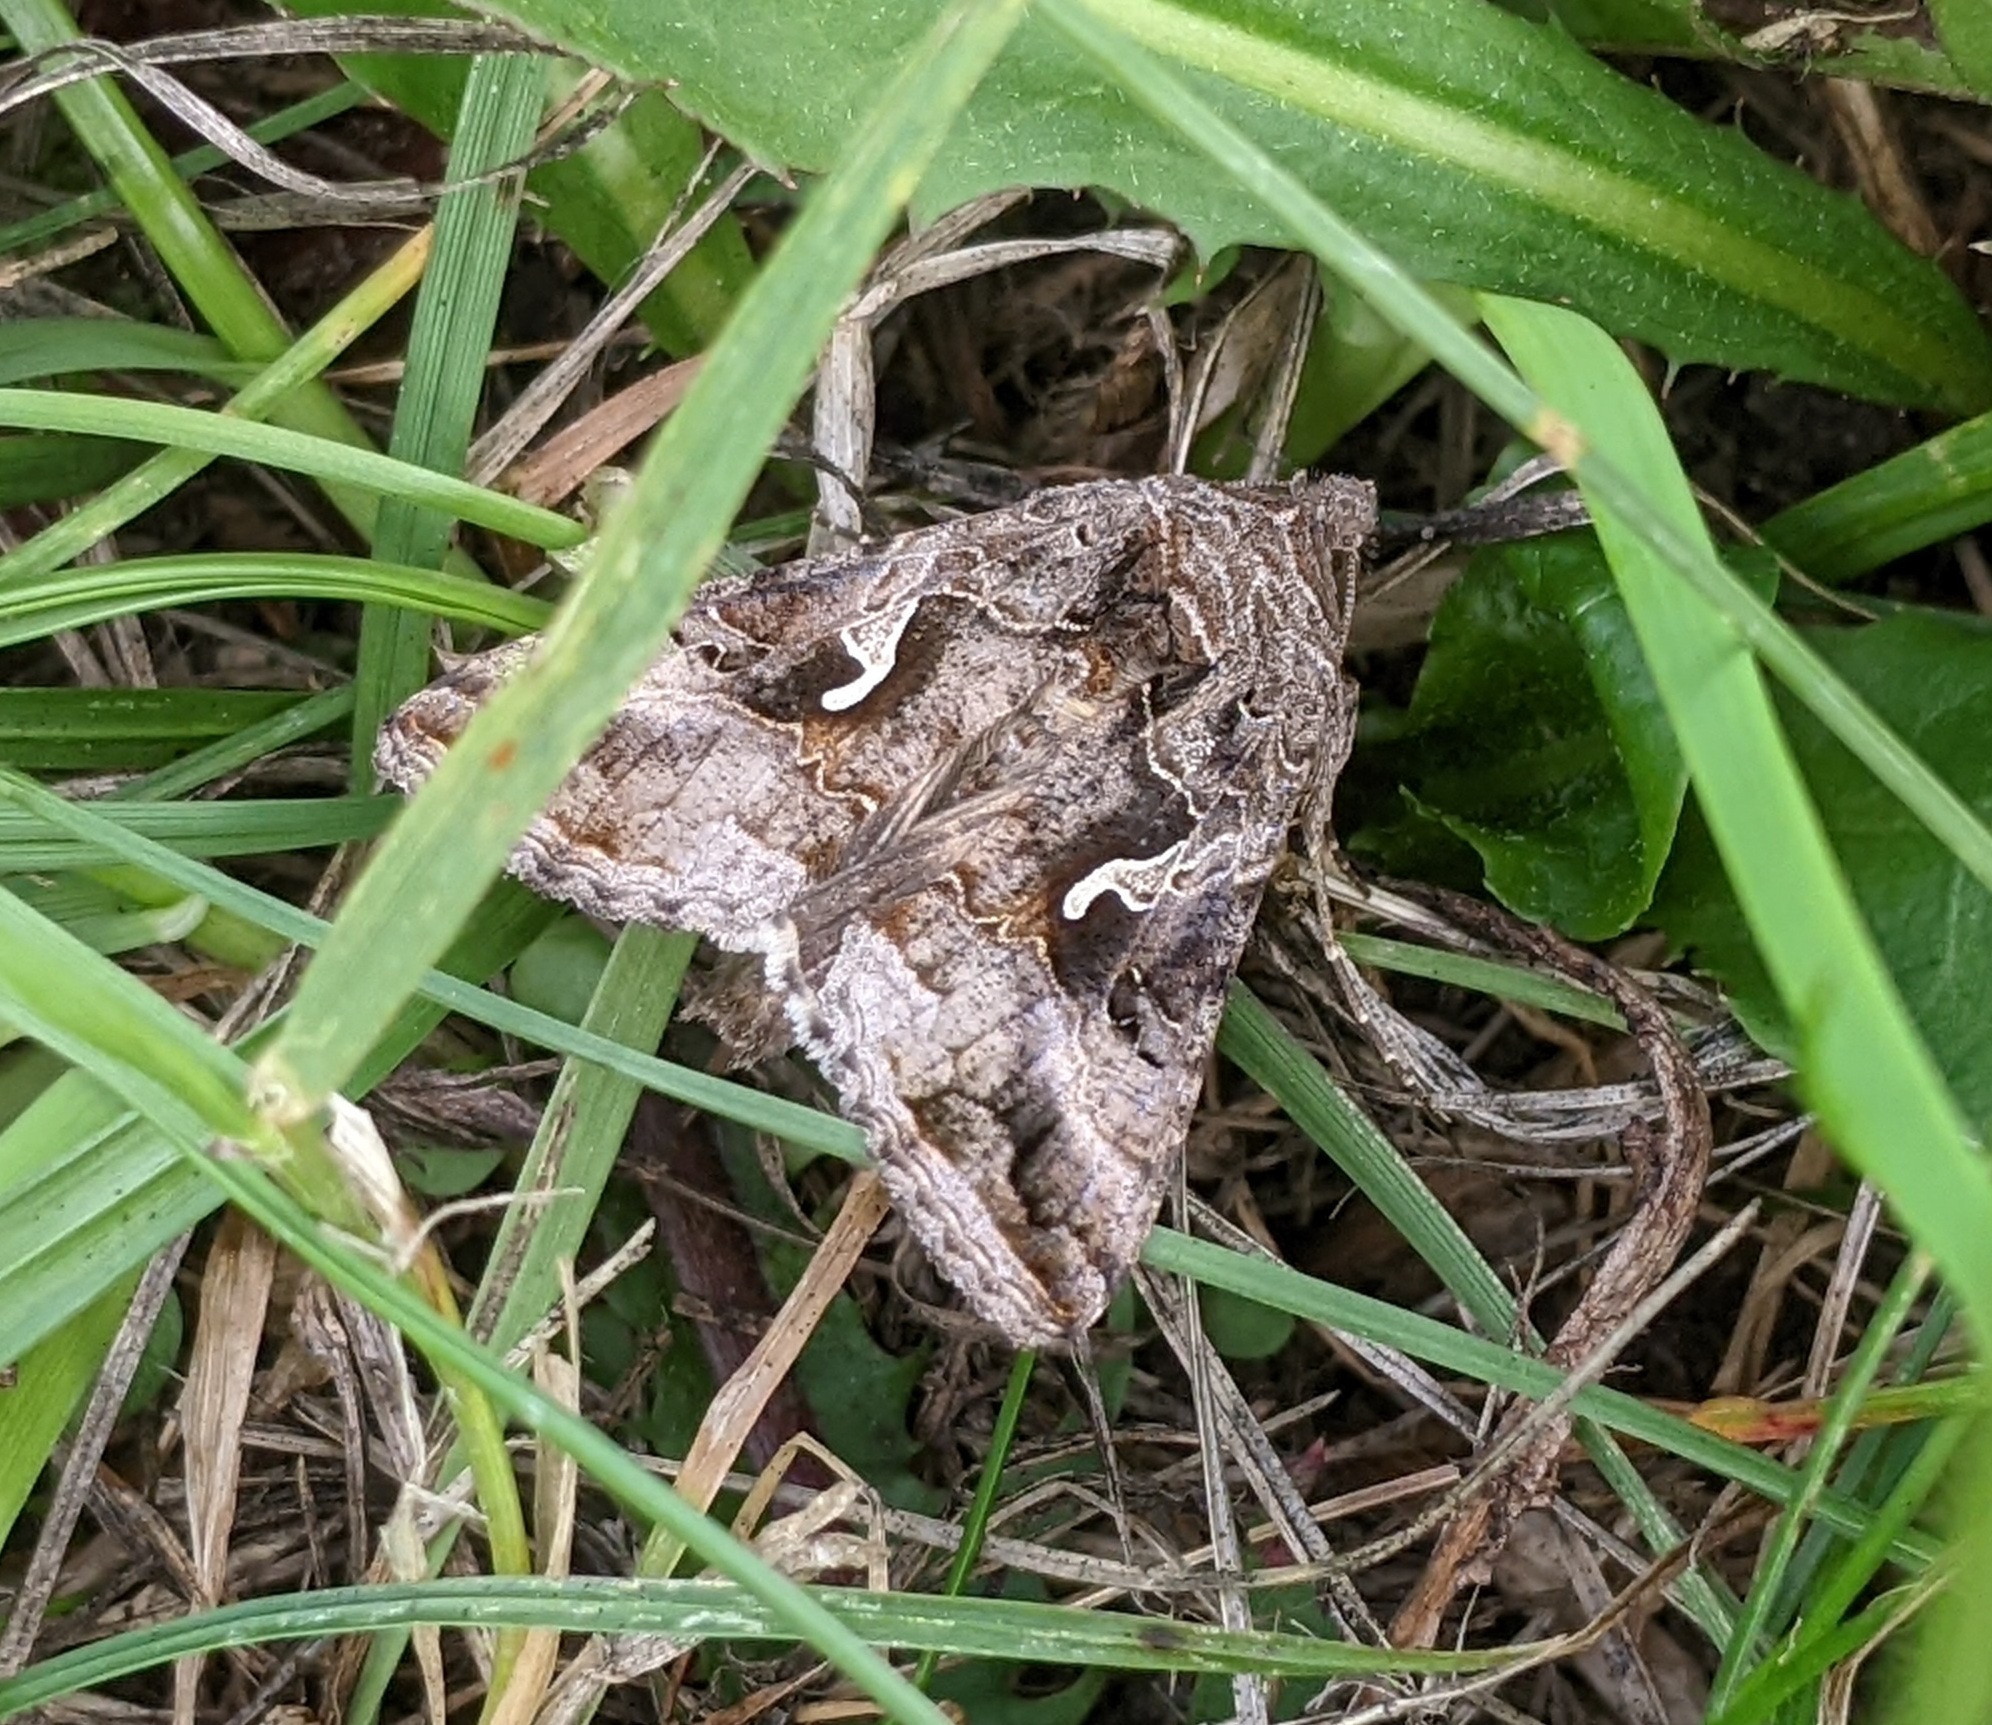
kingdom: Animalia
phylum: Arthropoda
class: Insecta
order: Lepidoptera
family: Noctuidae
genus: Autographa
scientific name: Autographa gamma
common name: Silver y
